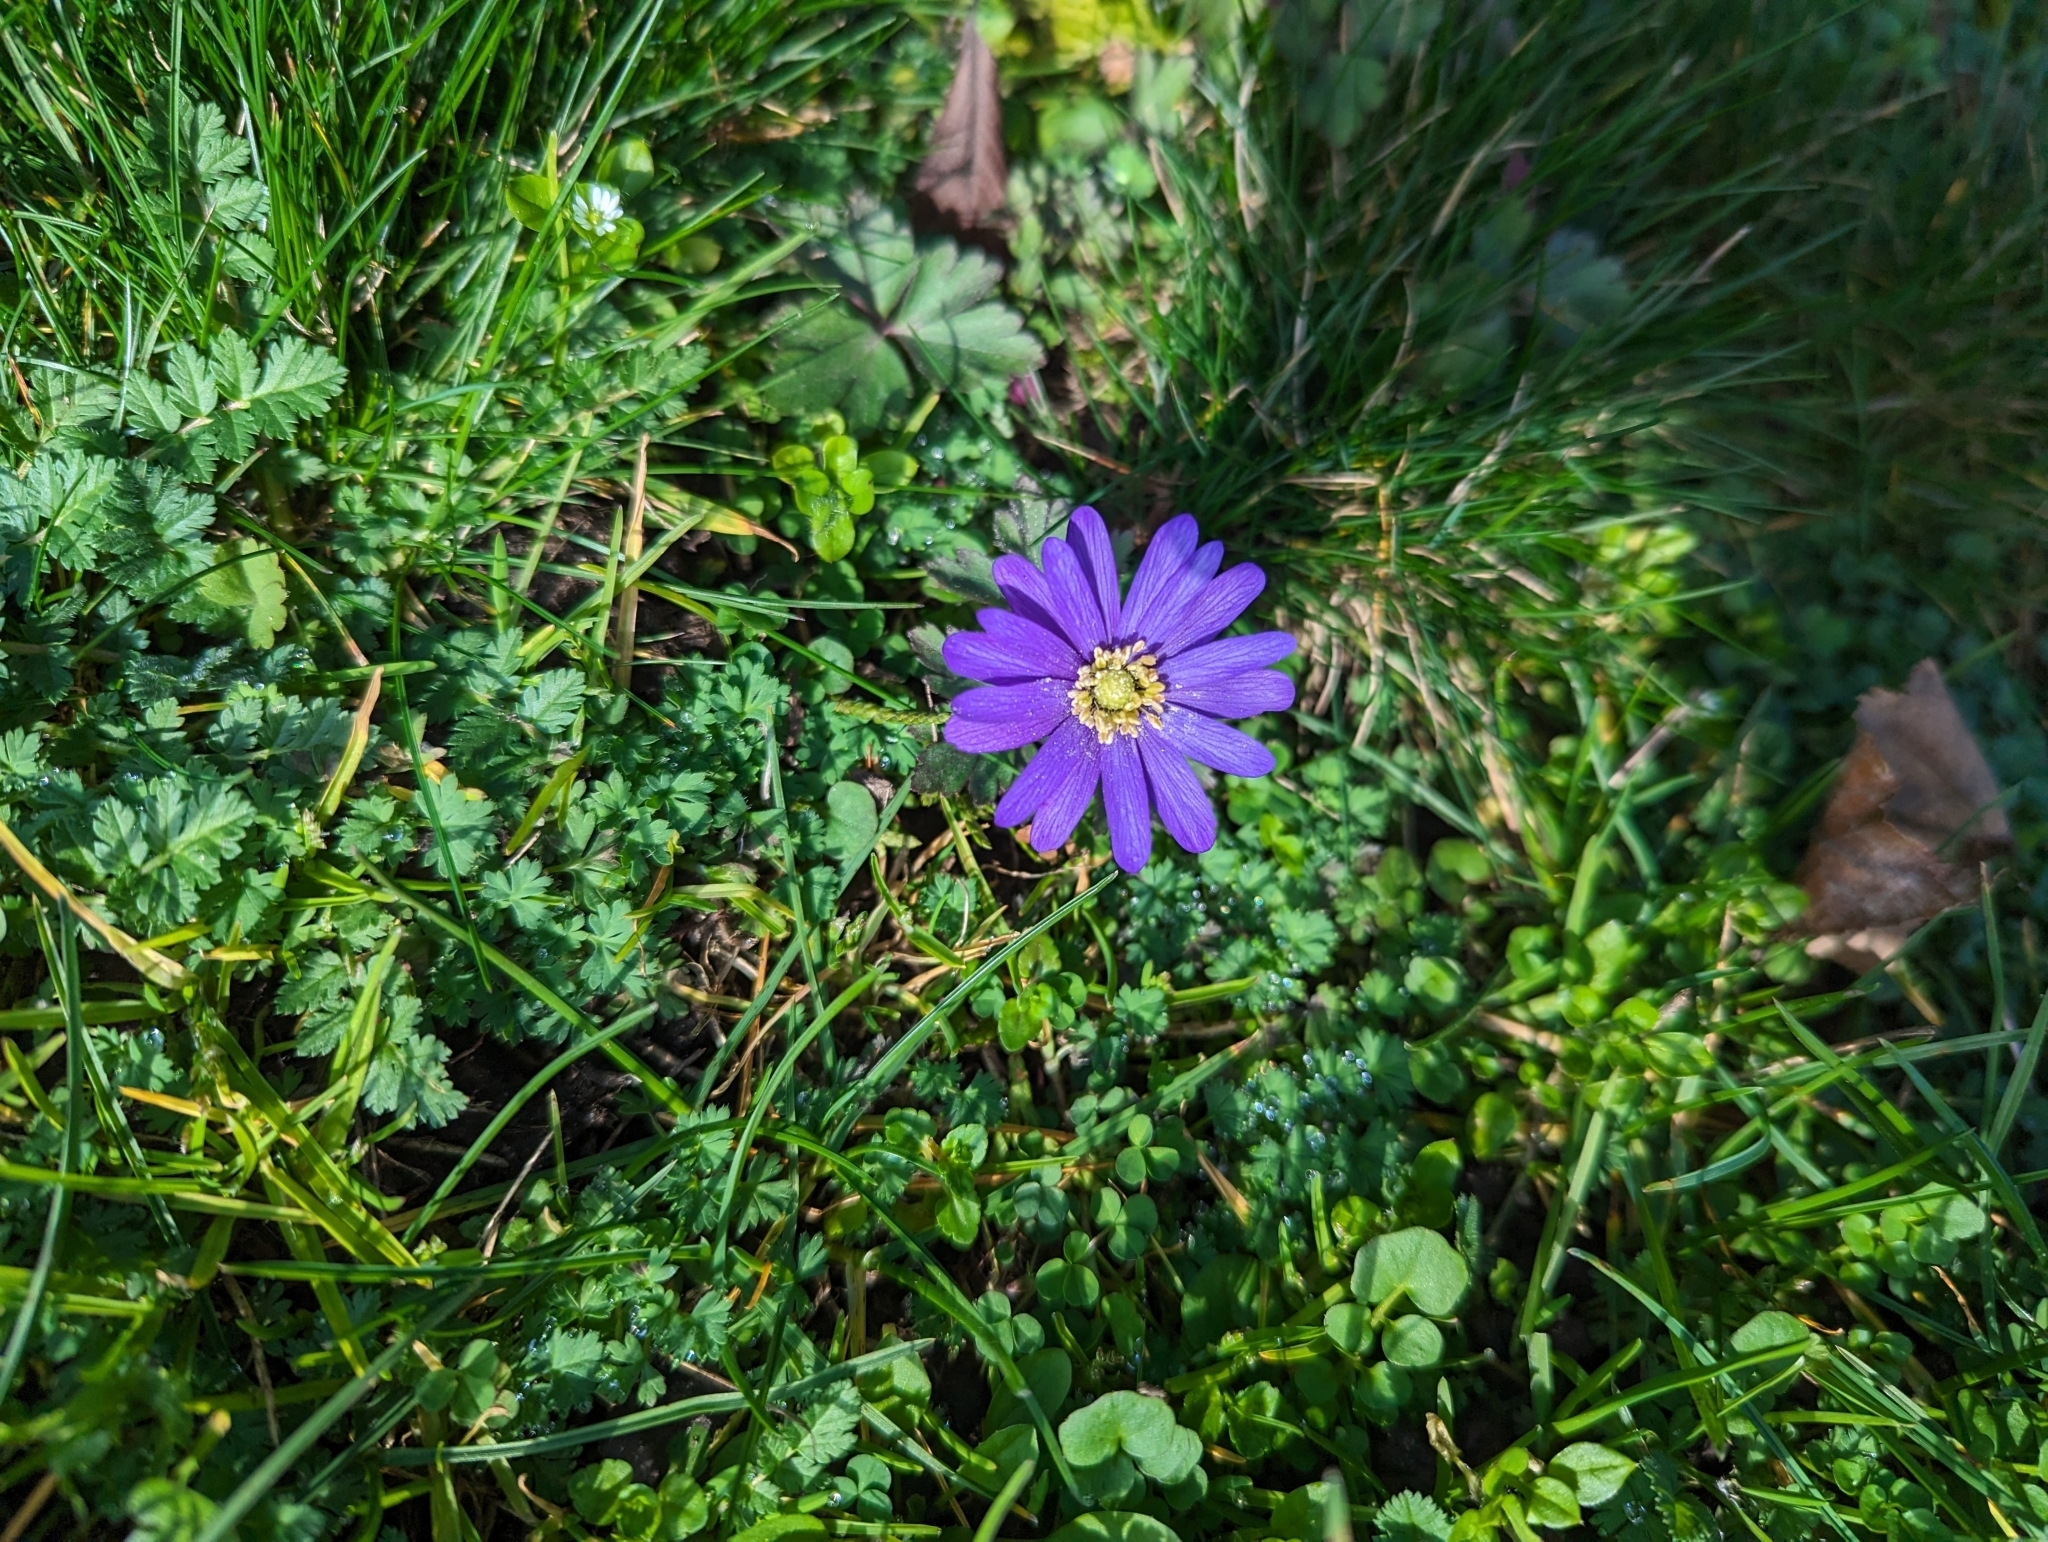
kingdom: Plantae
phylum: Tracheophyta
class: Magnoliopsida
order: Ranunculales
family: Ranunculaceae
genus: Anemone
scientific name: Anemone blanda
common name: Balkan anemone
